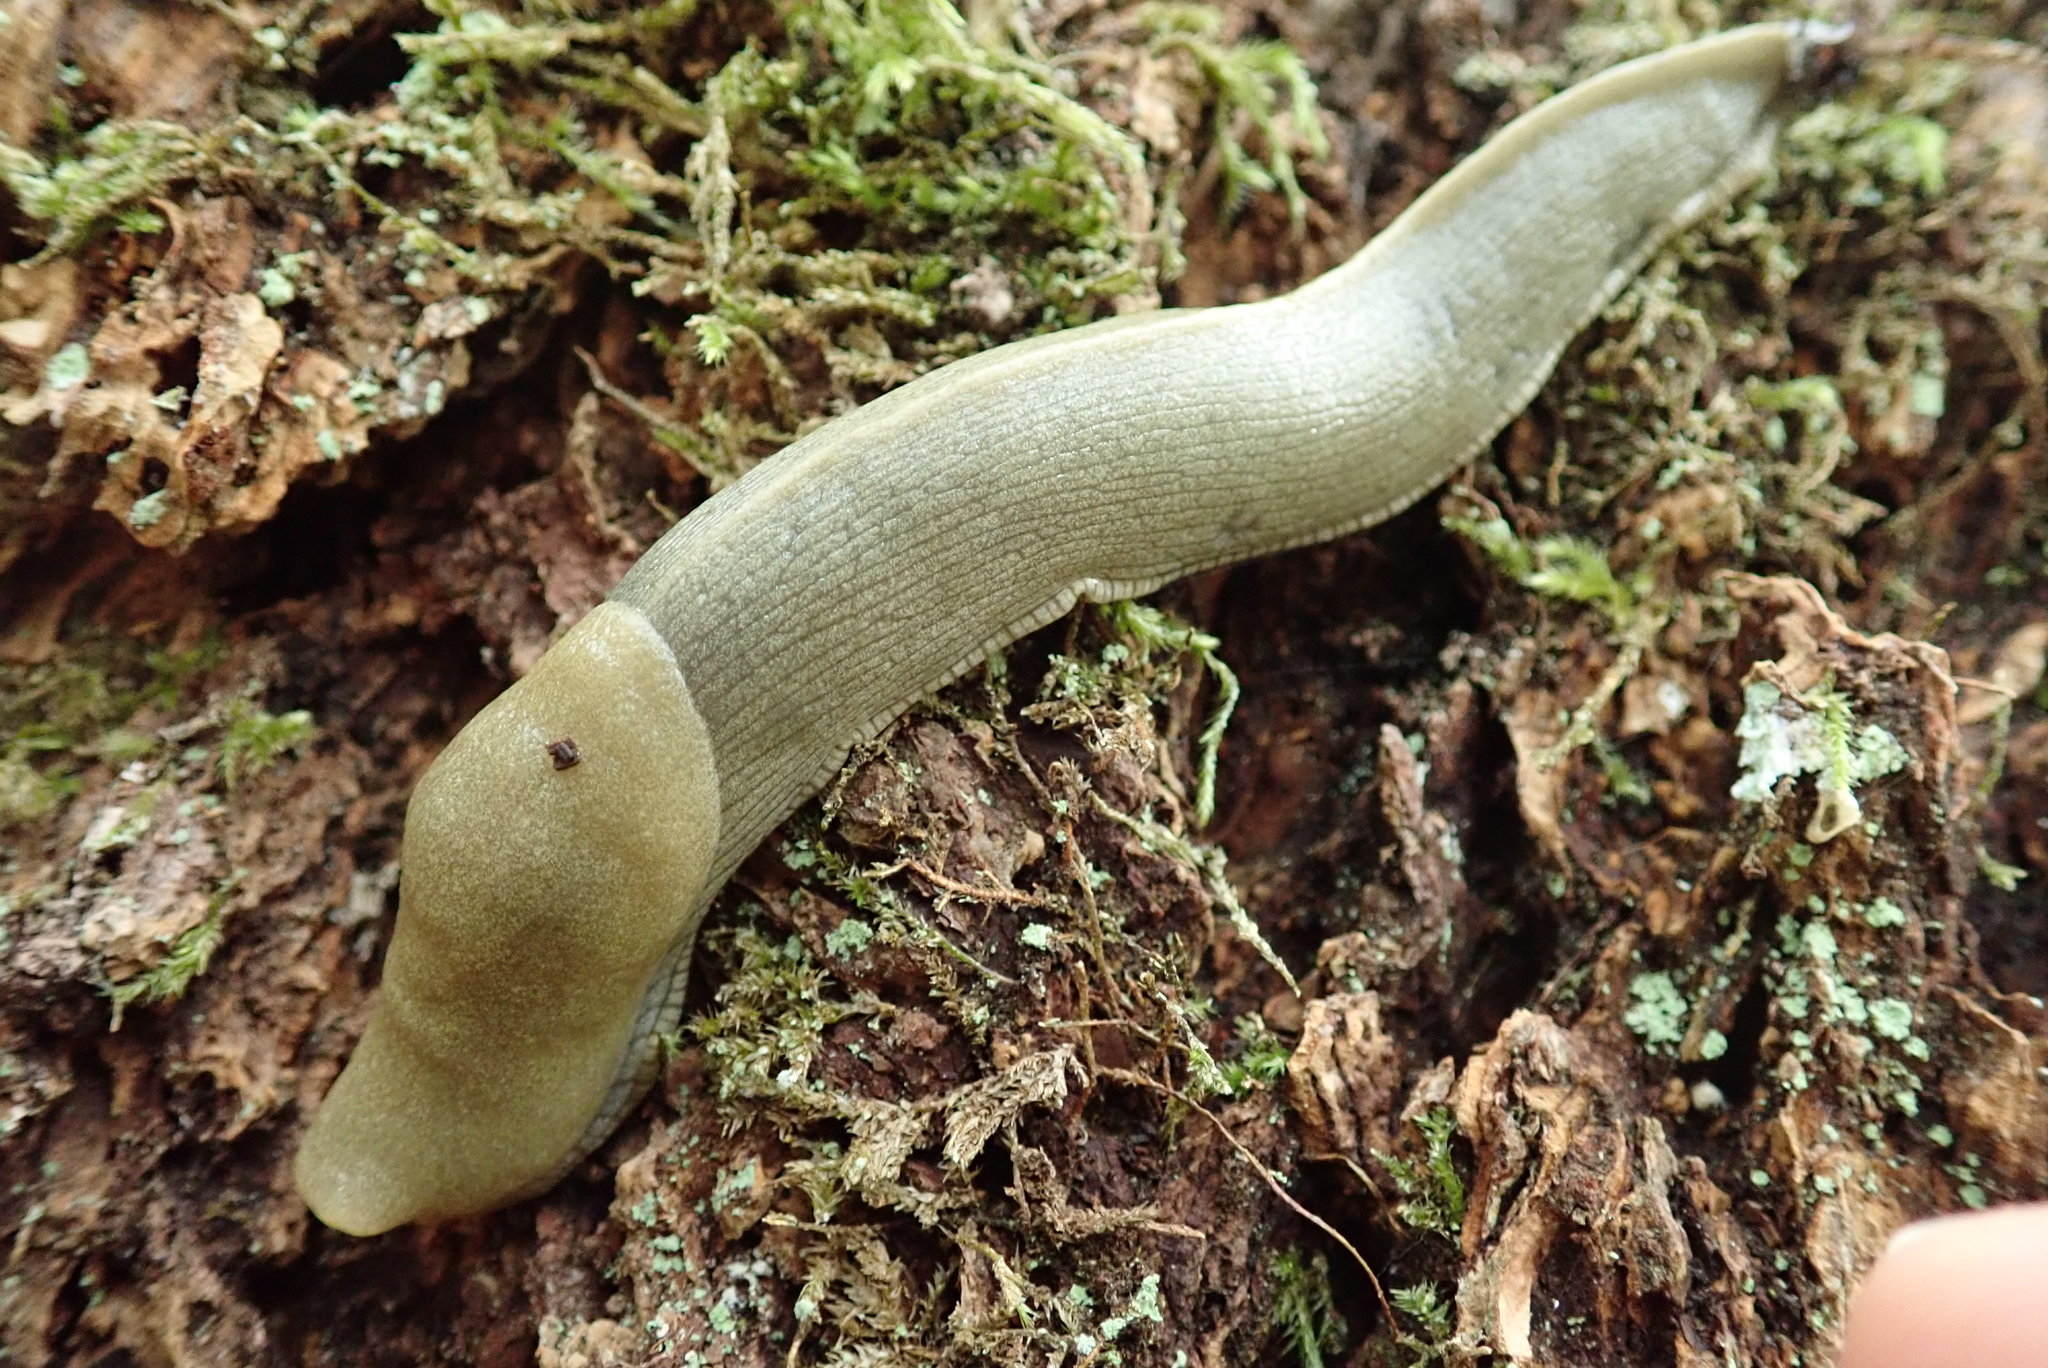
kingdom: Animalia
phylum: Mollusca
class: Gastropoda
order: Stylommatophora
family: Ariolimacidae
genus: Ariolimax
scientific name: Ariolimax columbianus
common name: Pacific banana slug
